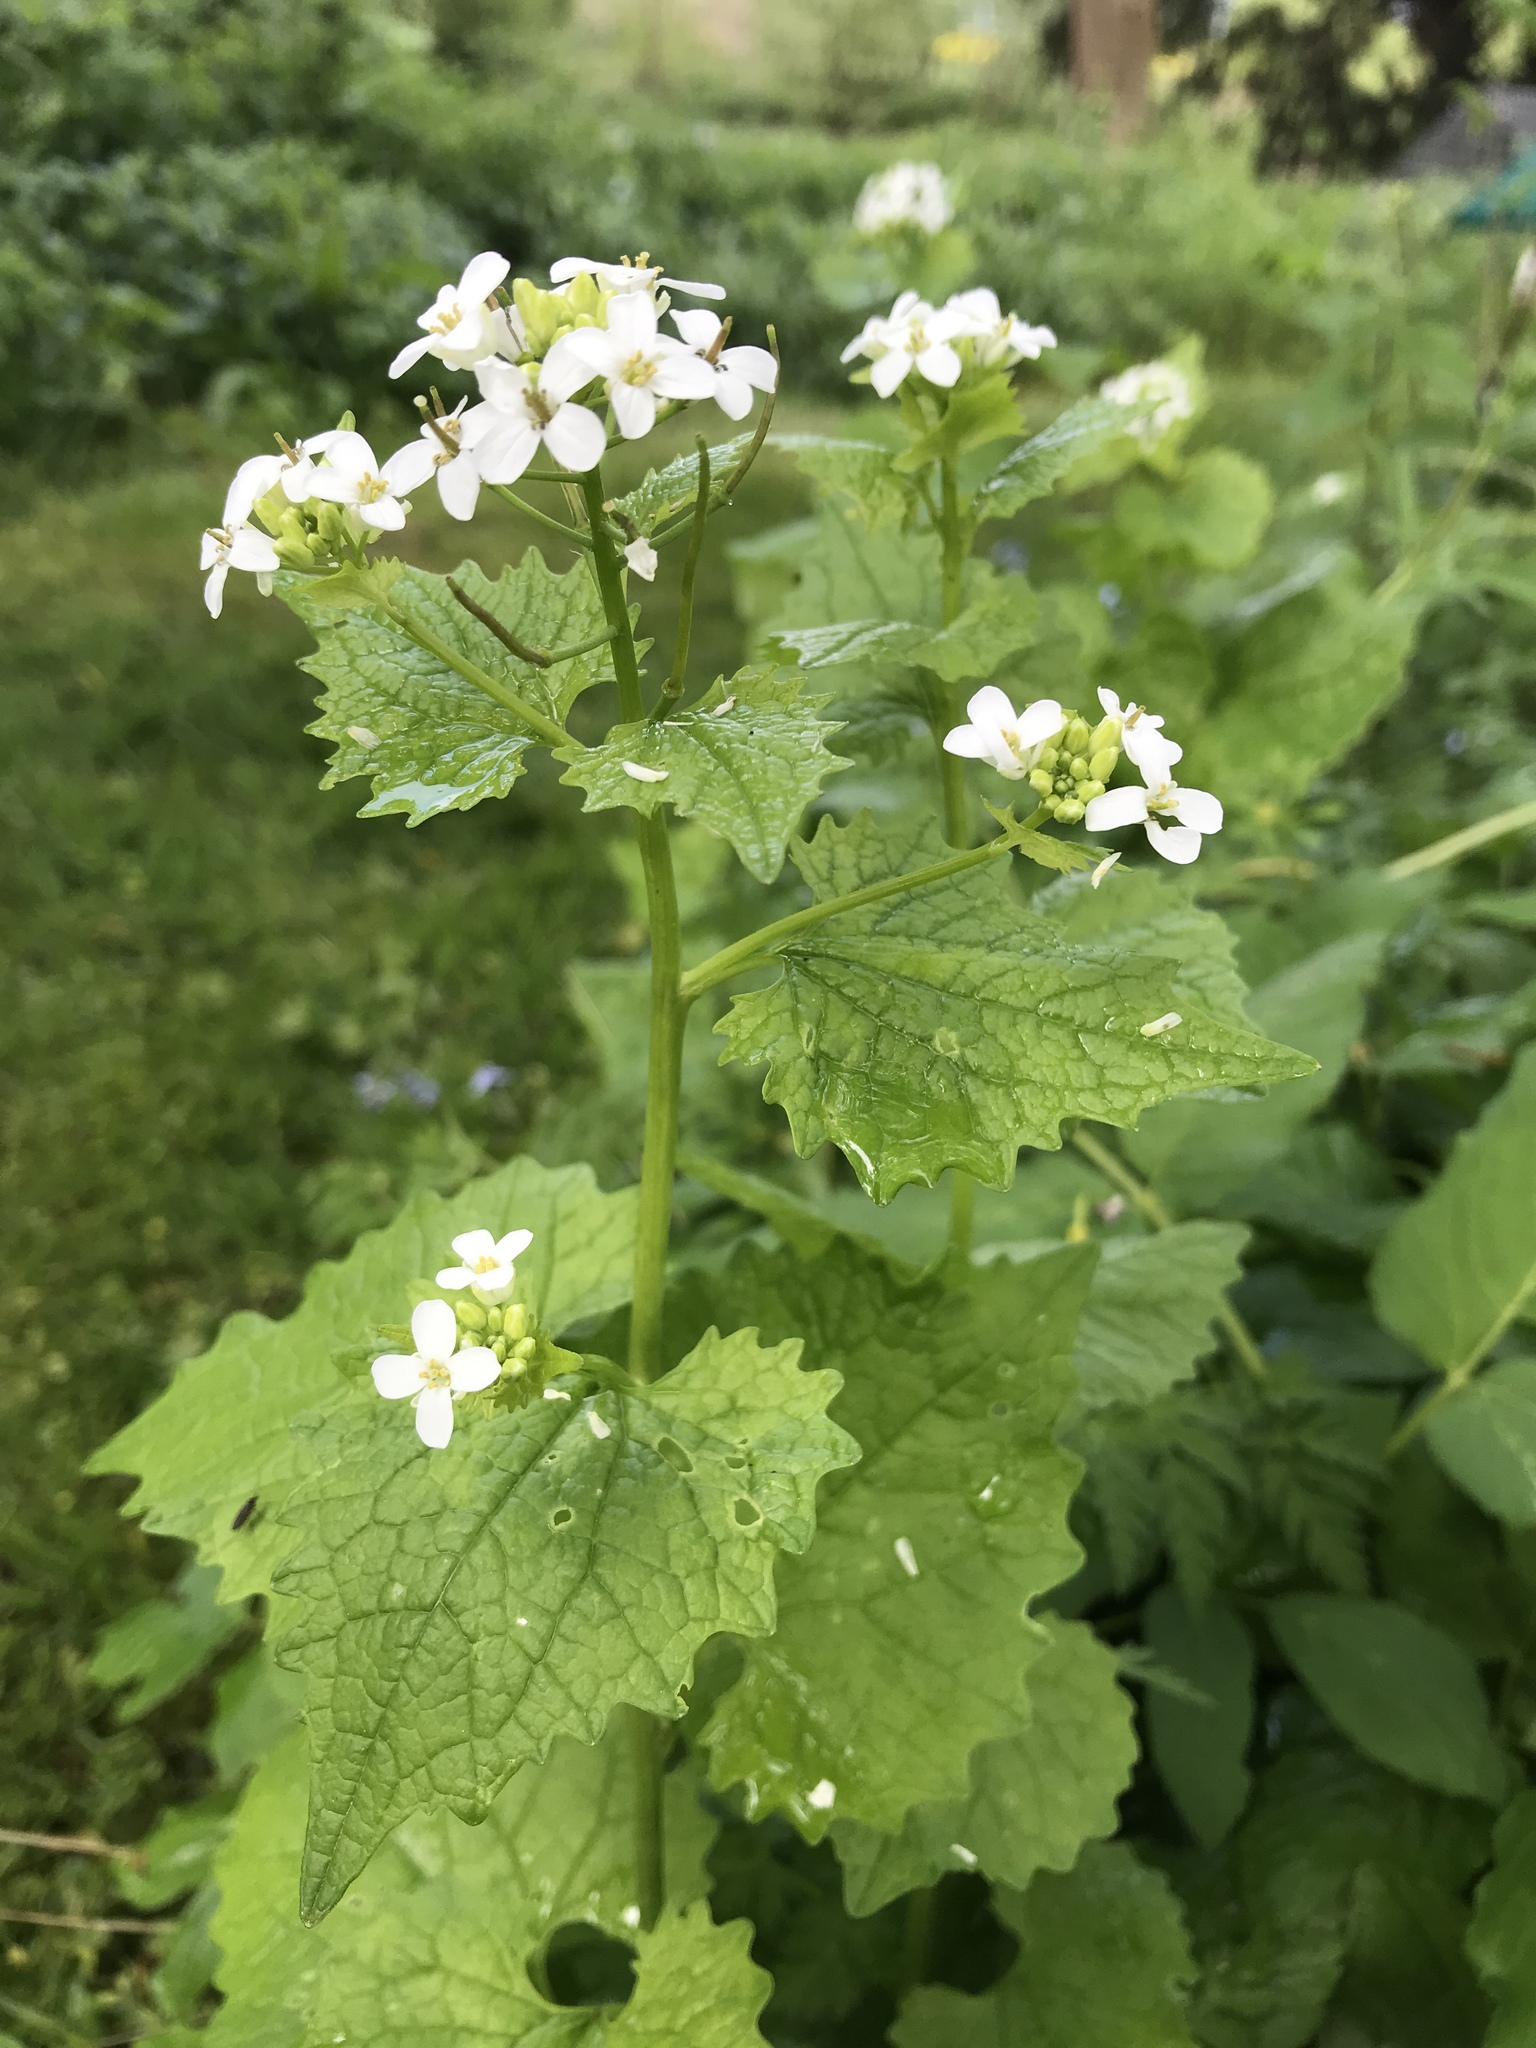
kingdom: Plantae
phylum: Tracheophyta
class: Magnoliopsida
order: Brassicales
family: Brassicaceae
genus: Alliaria
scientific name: Alliaria petiolata
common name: Garlic mustard
